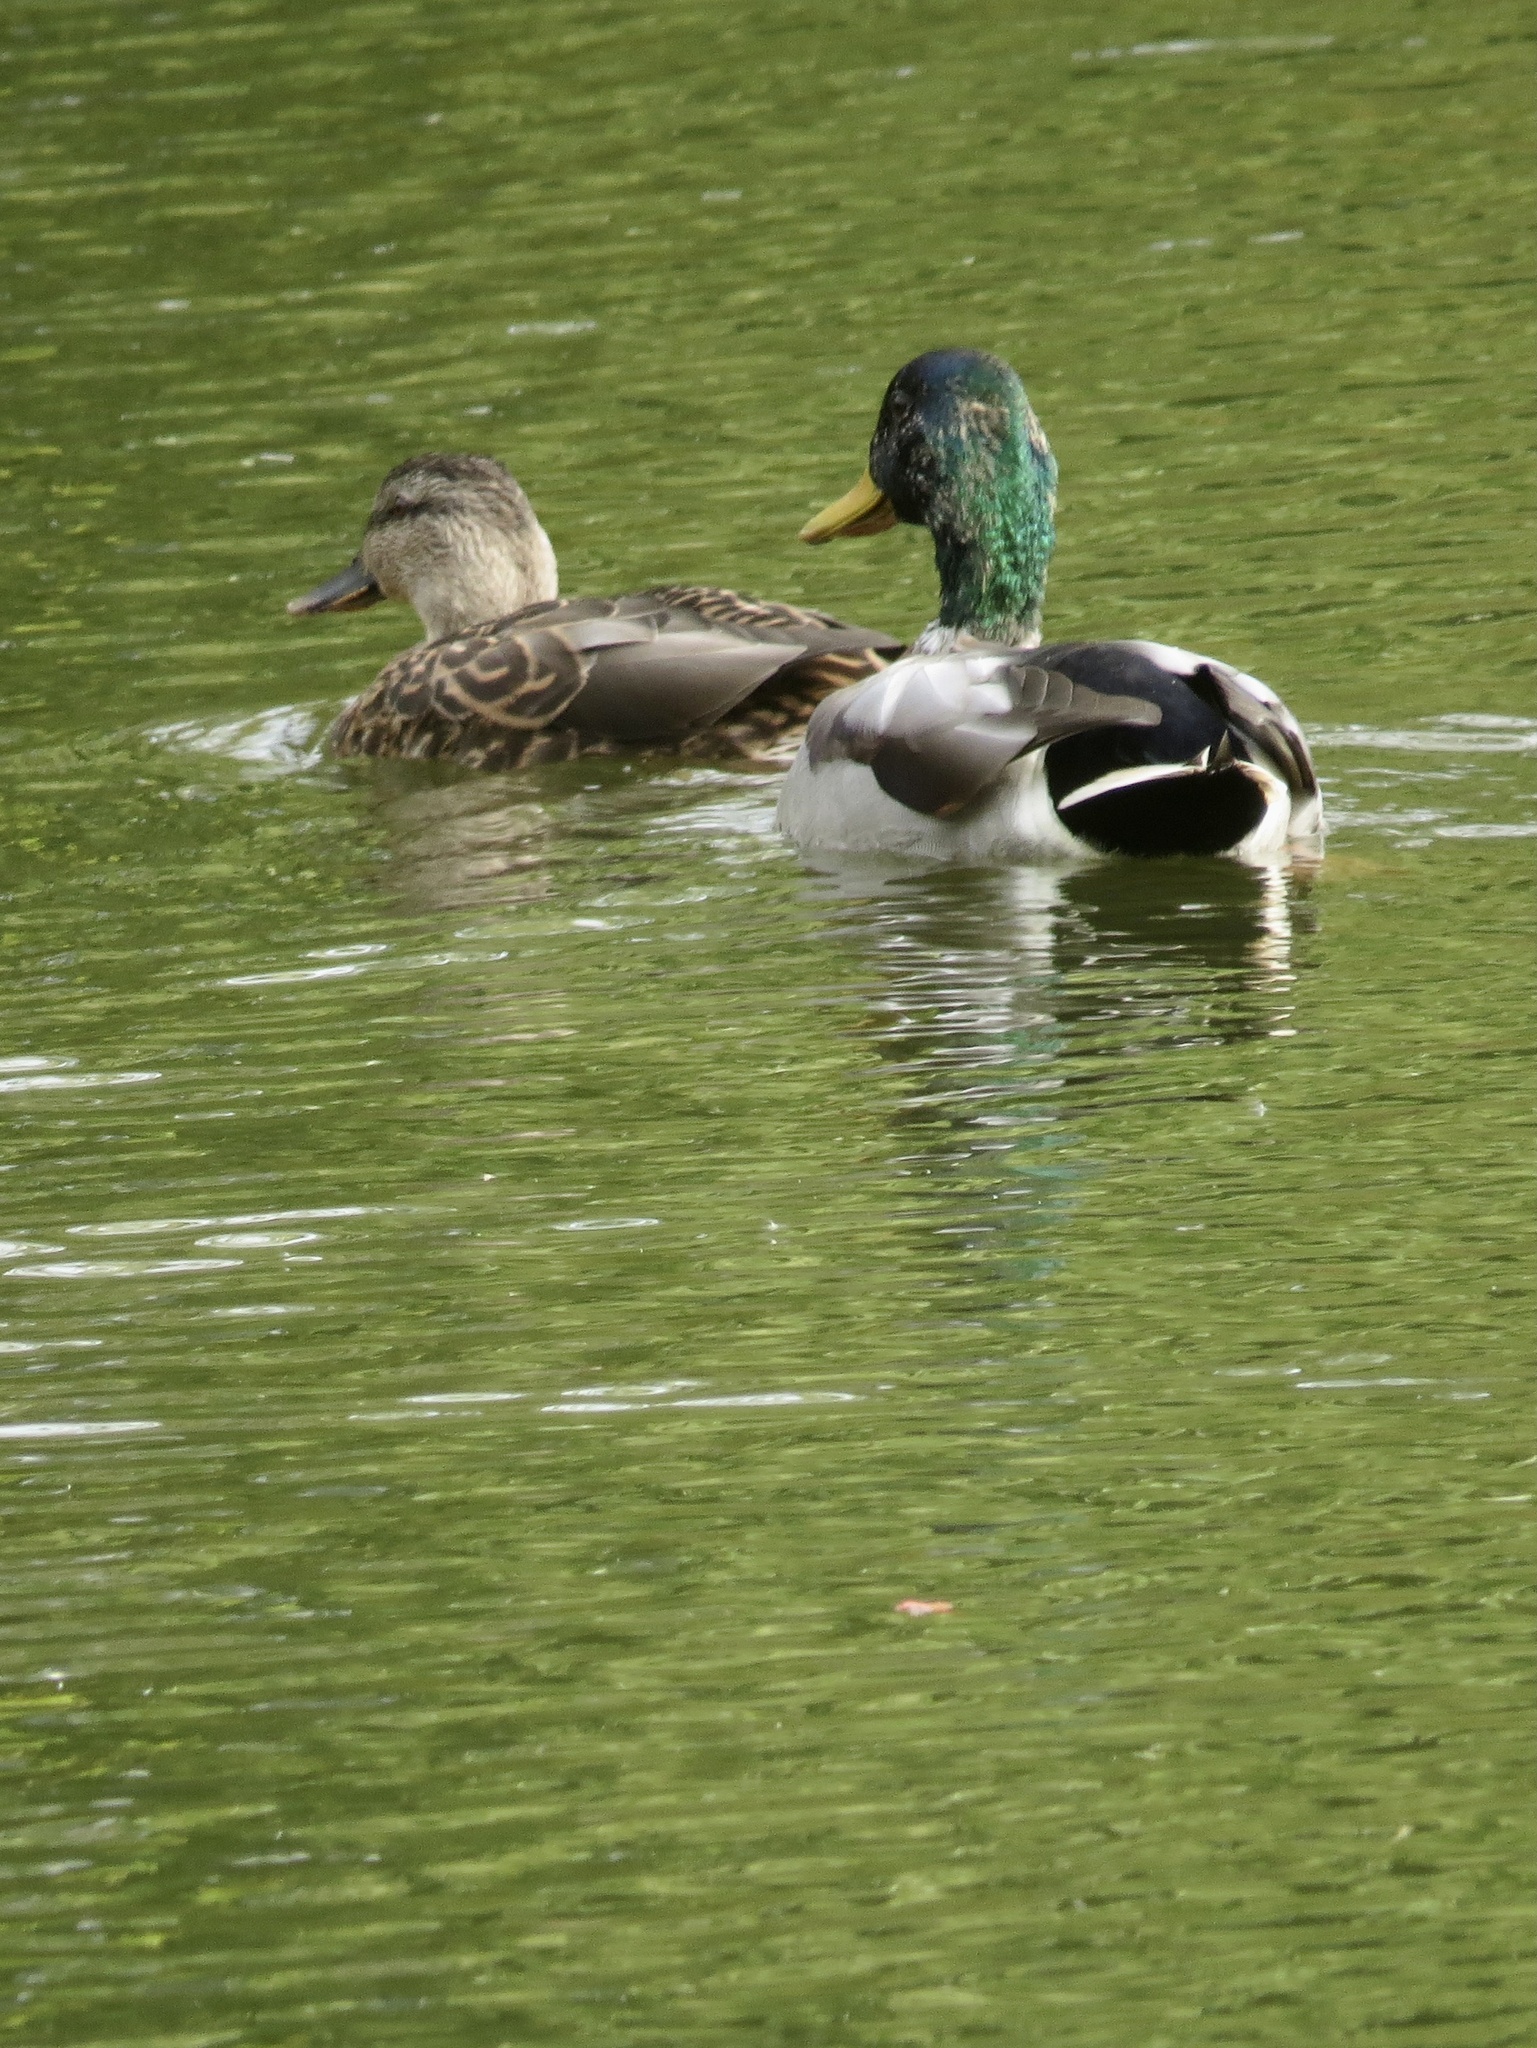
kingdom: Animalia
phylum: Chordata
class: Aves
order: Anseriformes
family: Anatidae
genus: Anas
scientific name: Anas platyrhynchos
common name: Mallard
